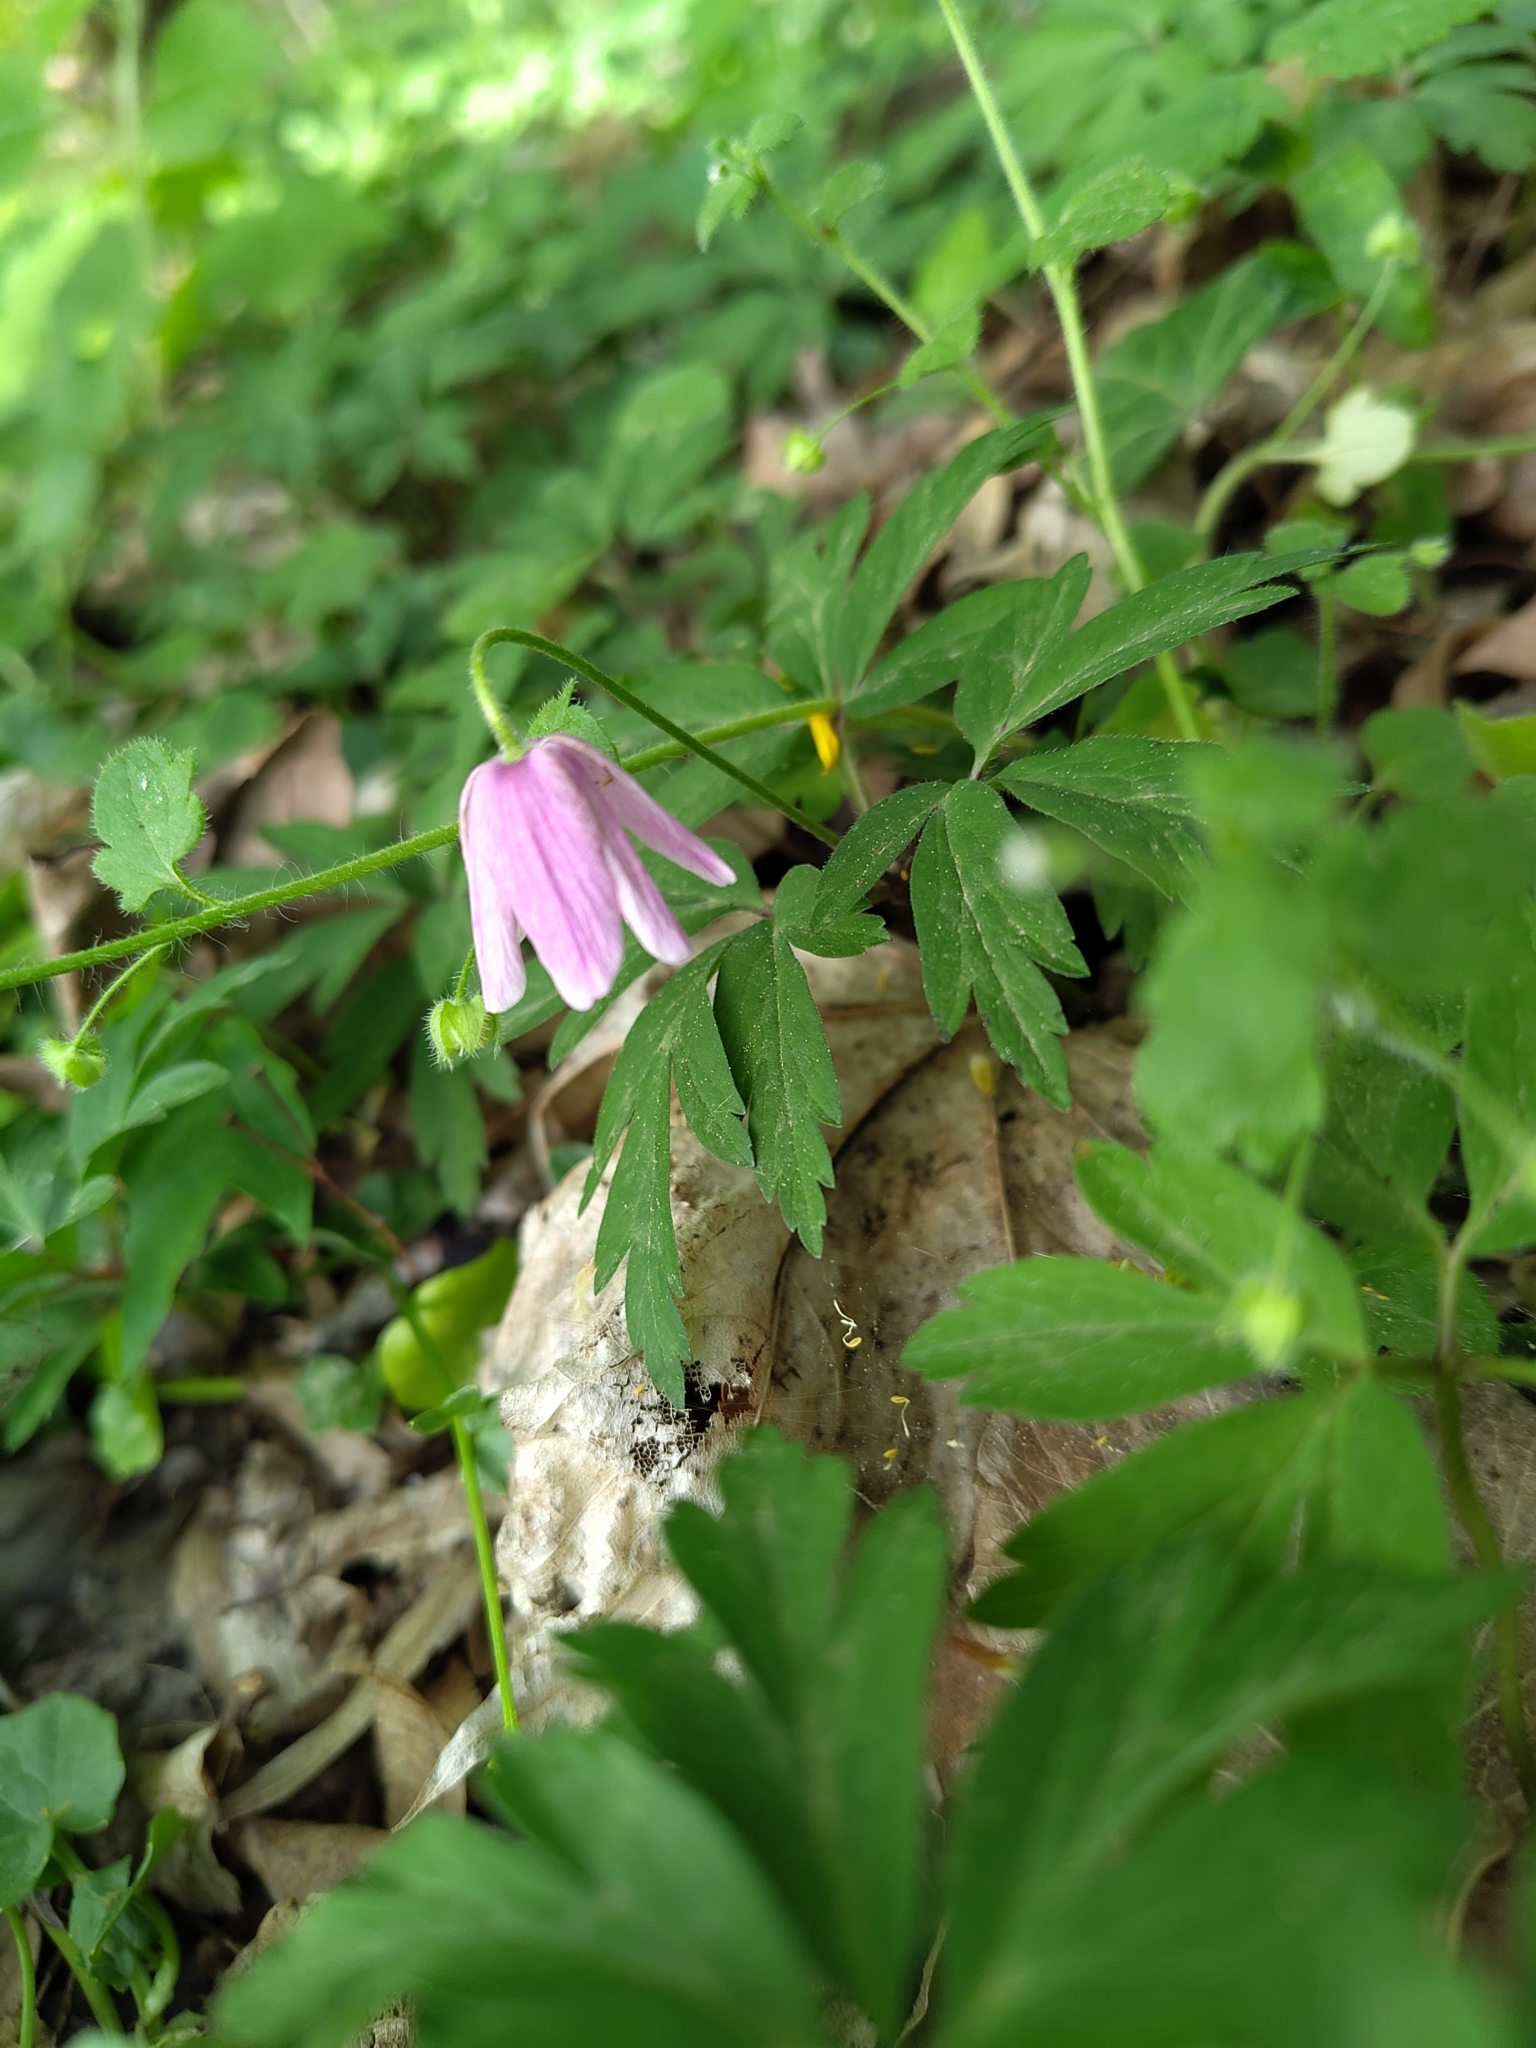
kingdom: Plantae
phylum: Tracheophyta
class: Magnoliopsida
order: Ranunculales
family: Ranunculaceae
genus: Anemone
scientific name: Anemone nemorosa
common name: Wood anemone
